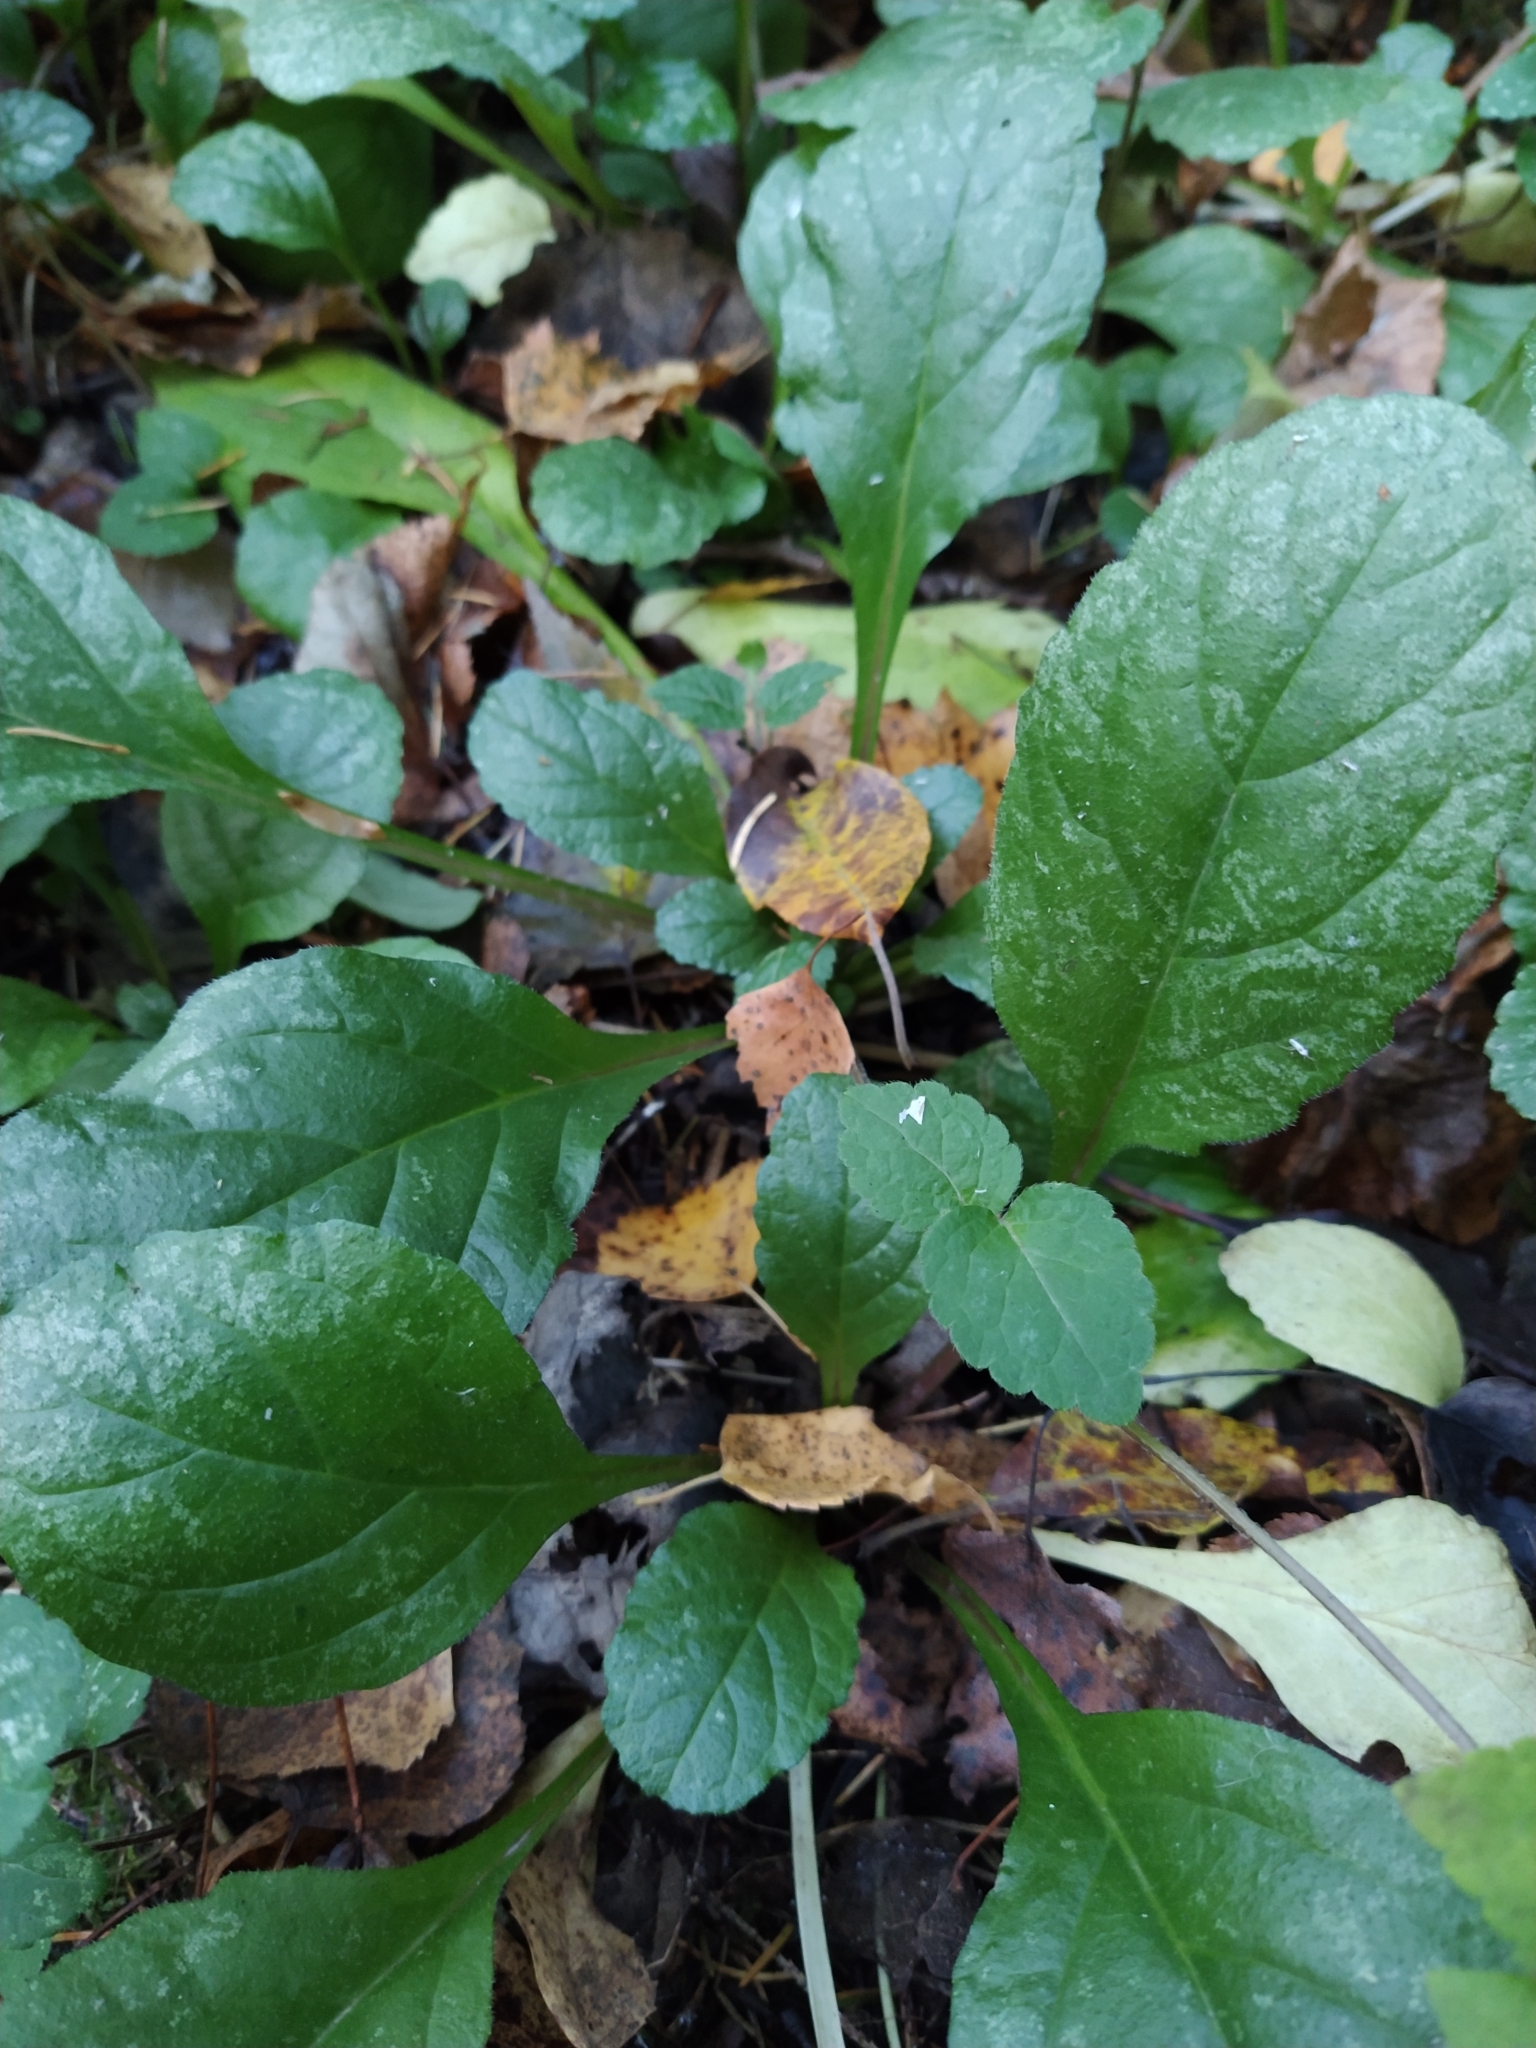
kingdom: Plantae
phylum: Tracheophyta
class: Magnoliopsida
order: Lamiales
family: Lamiaceae
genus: Ajuga
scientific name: Ajuga reptans
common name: Bugle
